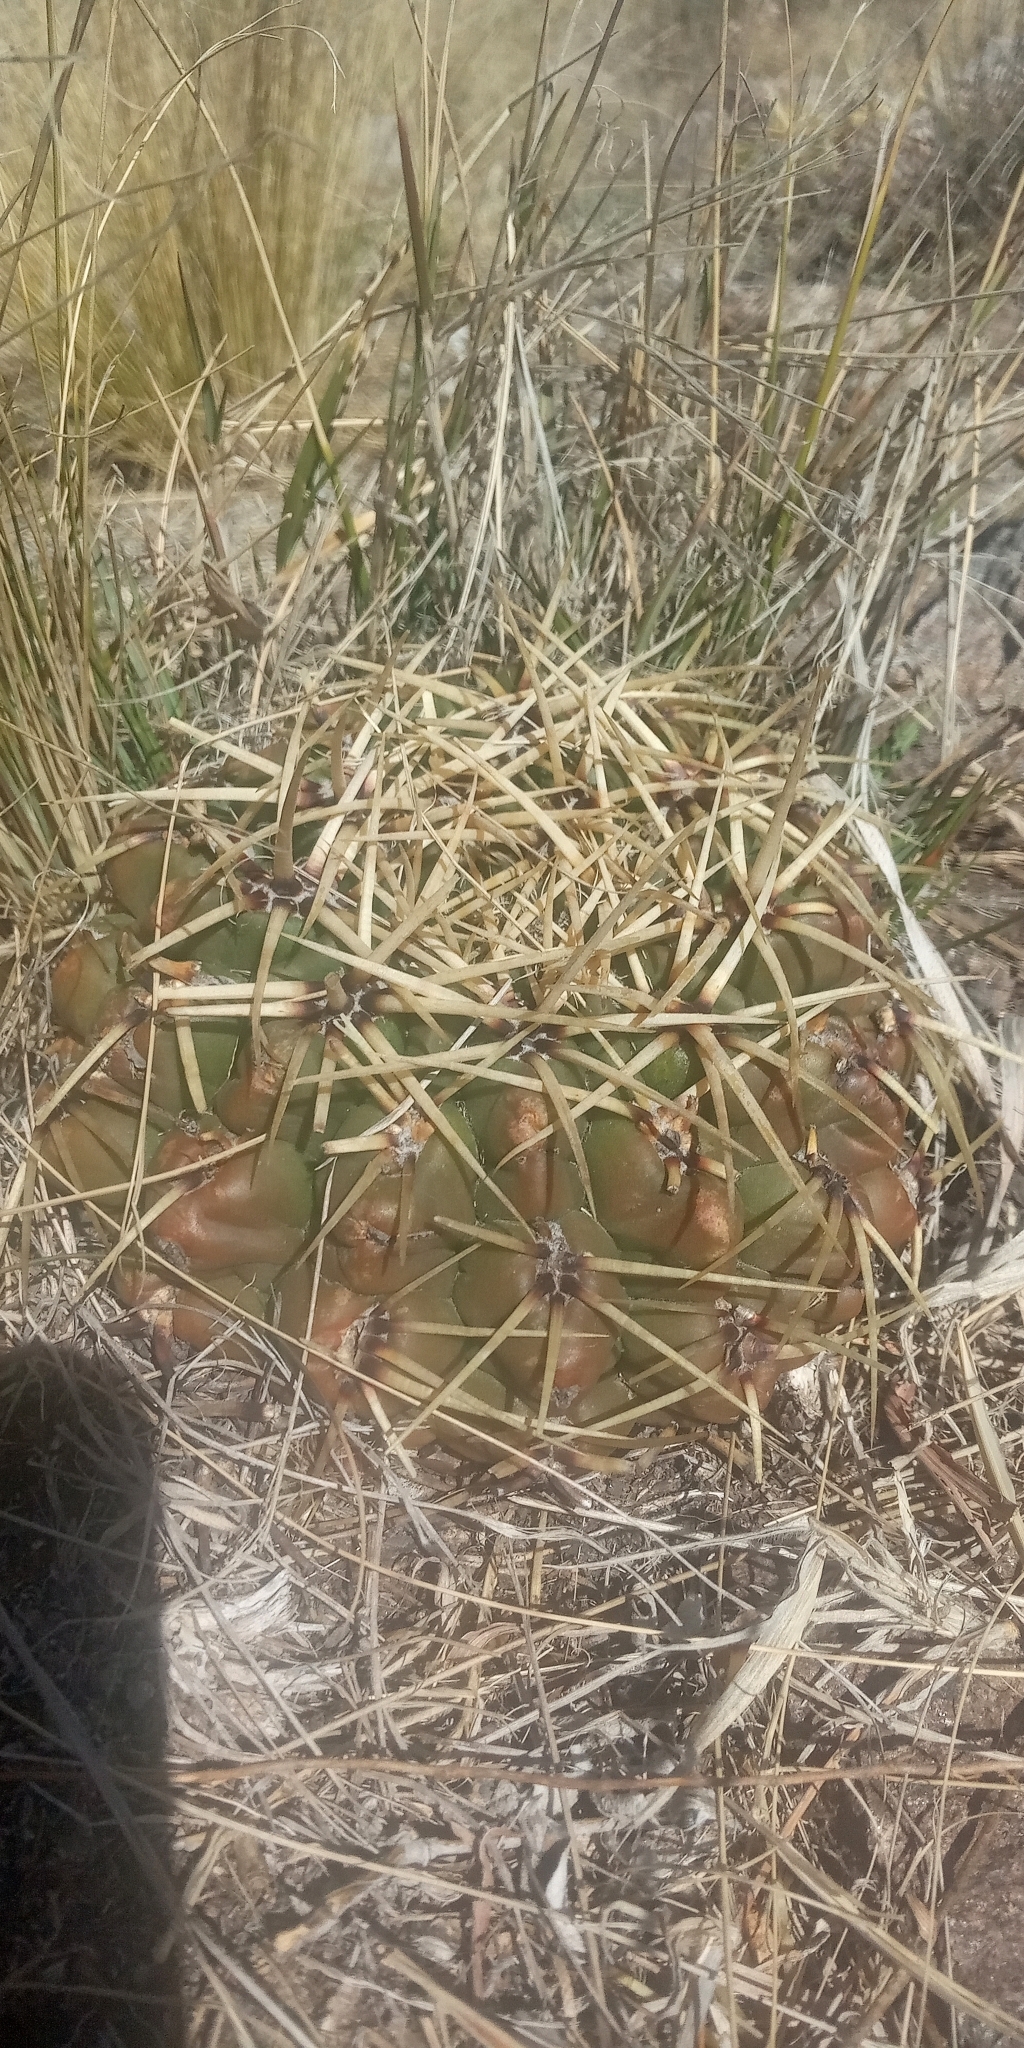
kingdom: Plantae
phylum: Tracheophyta
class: Magnoliopsida
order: Caryophyllales
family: Cactaceae
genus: Gymnocalycium
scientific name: Gymnocalycium monvillei
